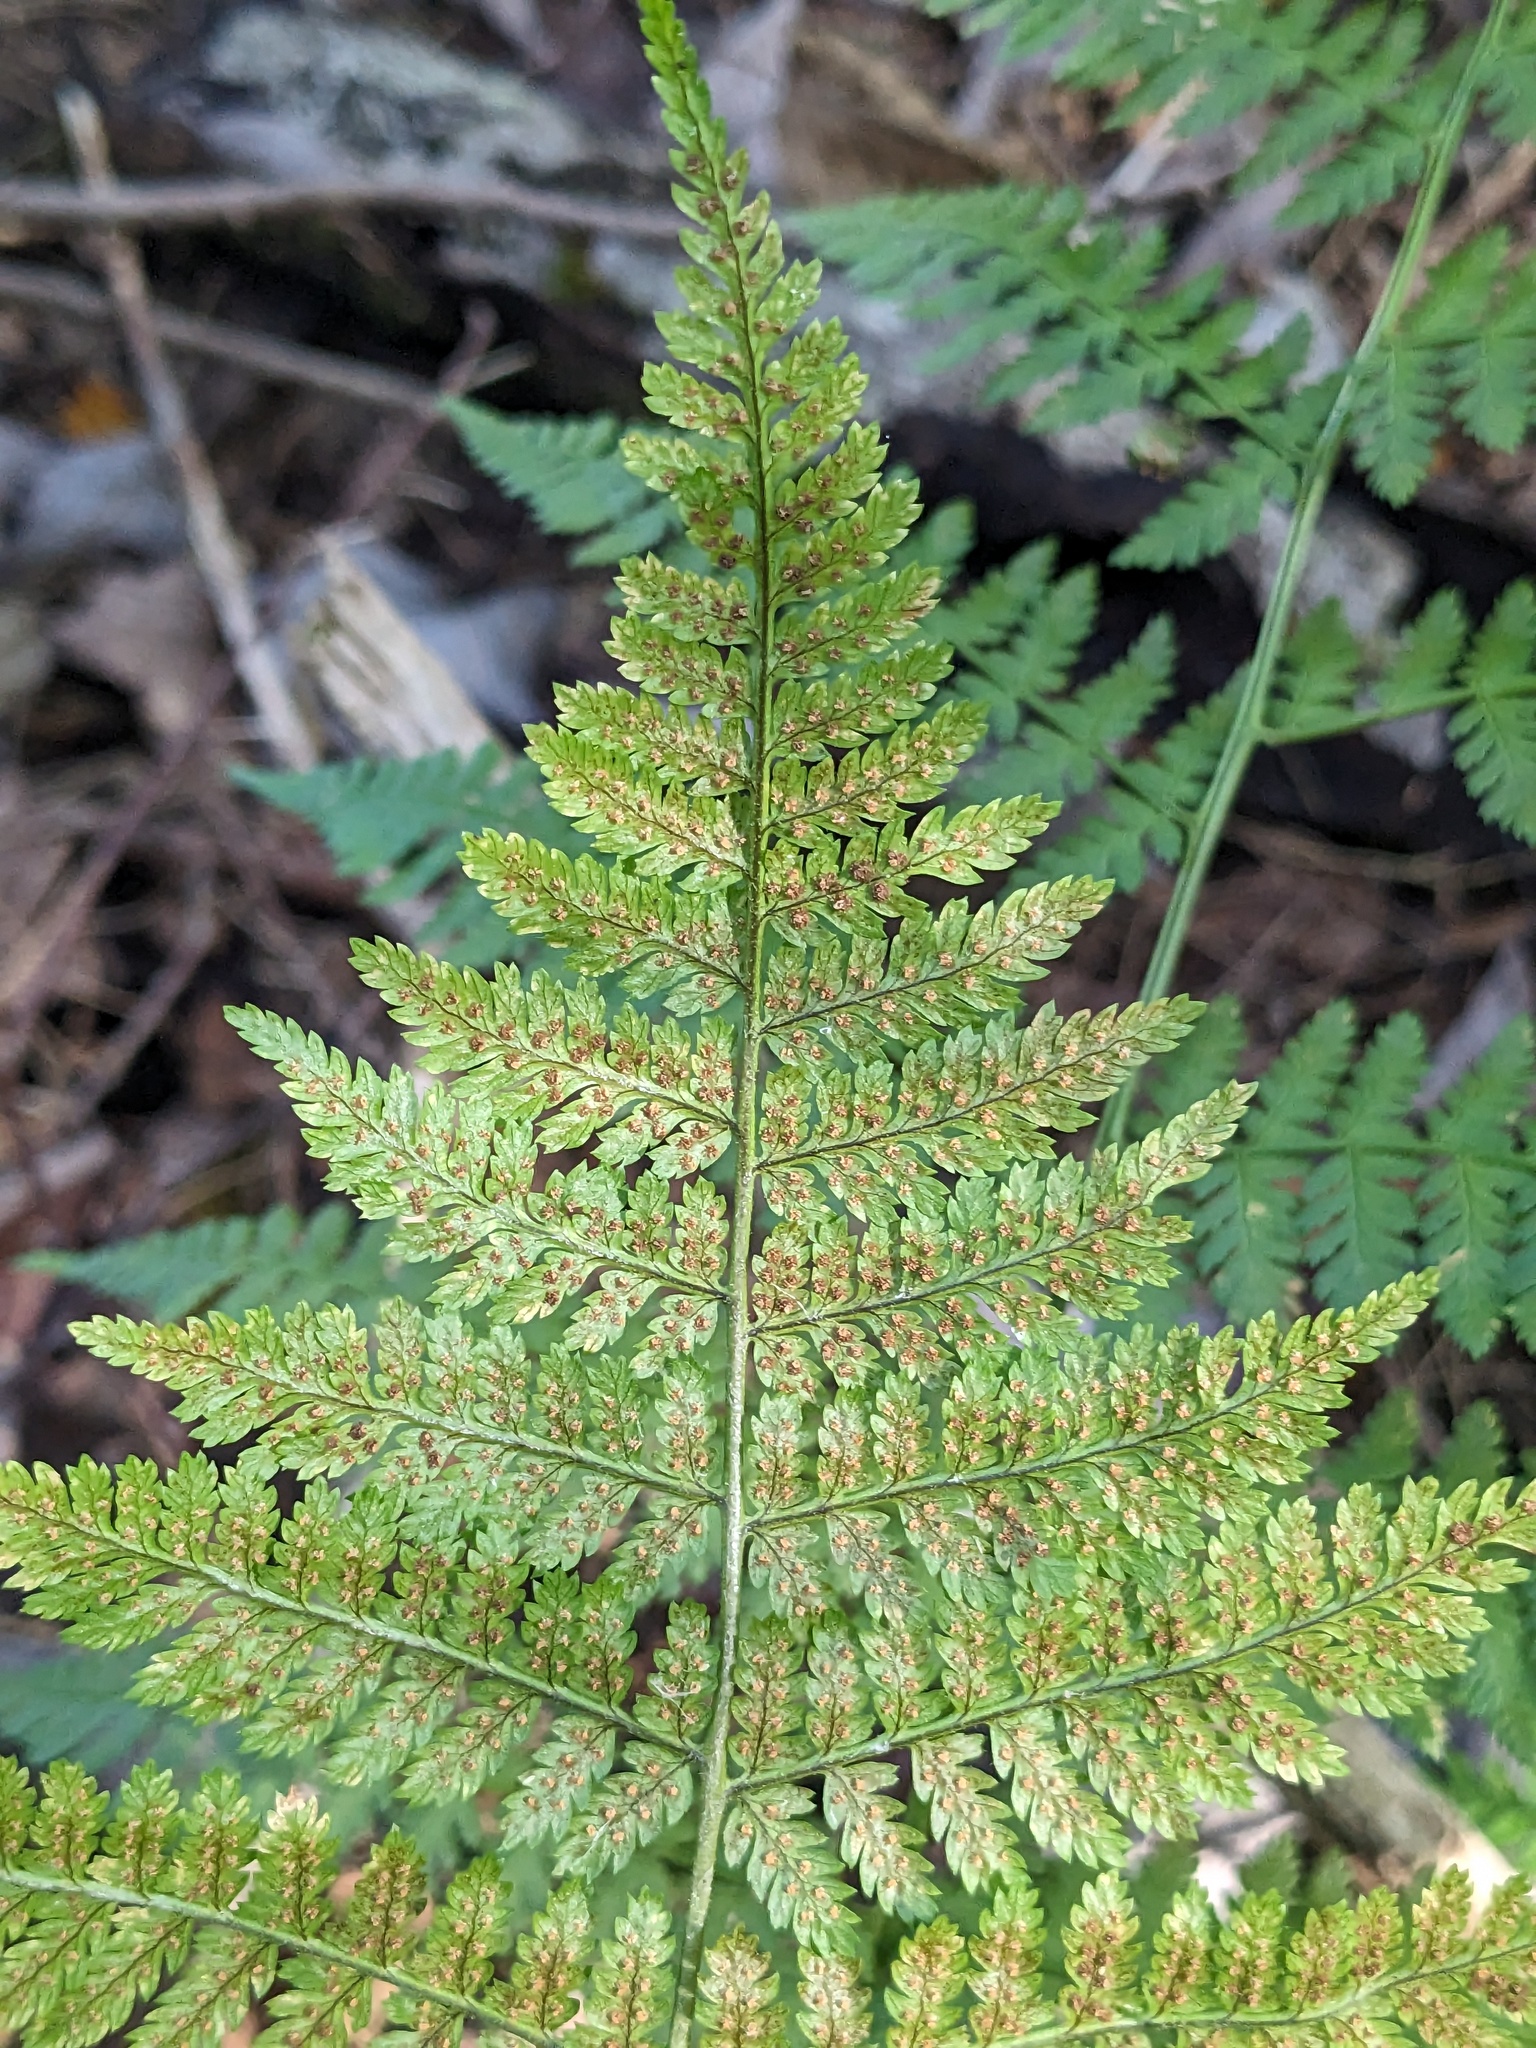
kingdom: Plantae
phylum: Tracheophyta
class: Polypodiopsida
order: Polypodiales
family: Dryopteridaceae
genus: Dryopteris
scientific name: Dryopteris intermedia
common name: Evergreen wood fern
